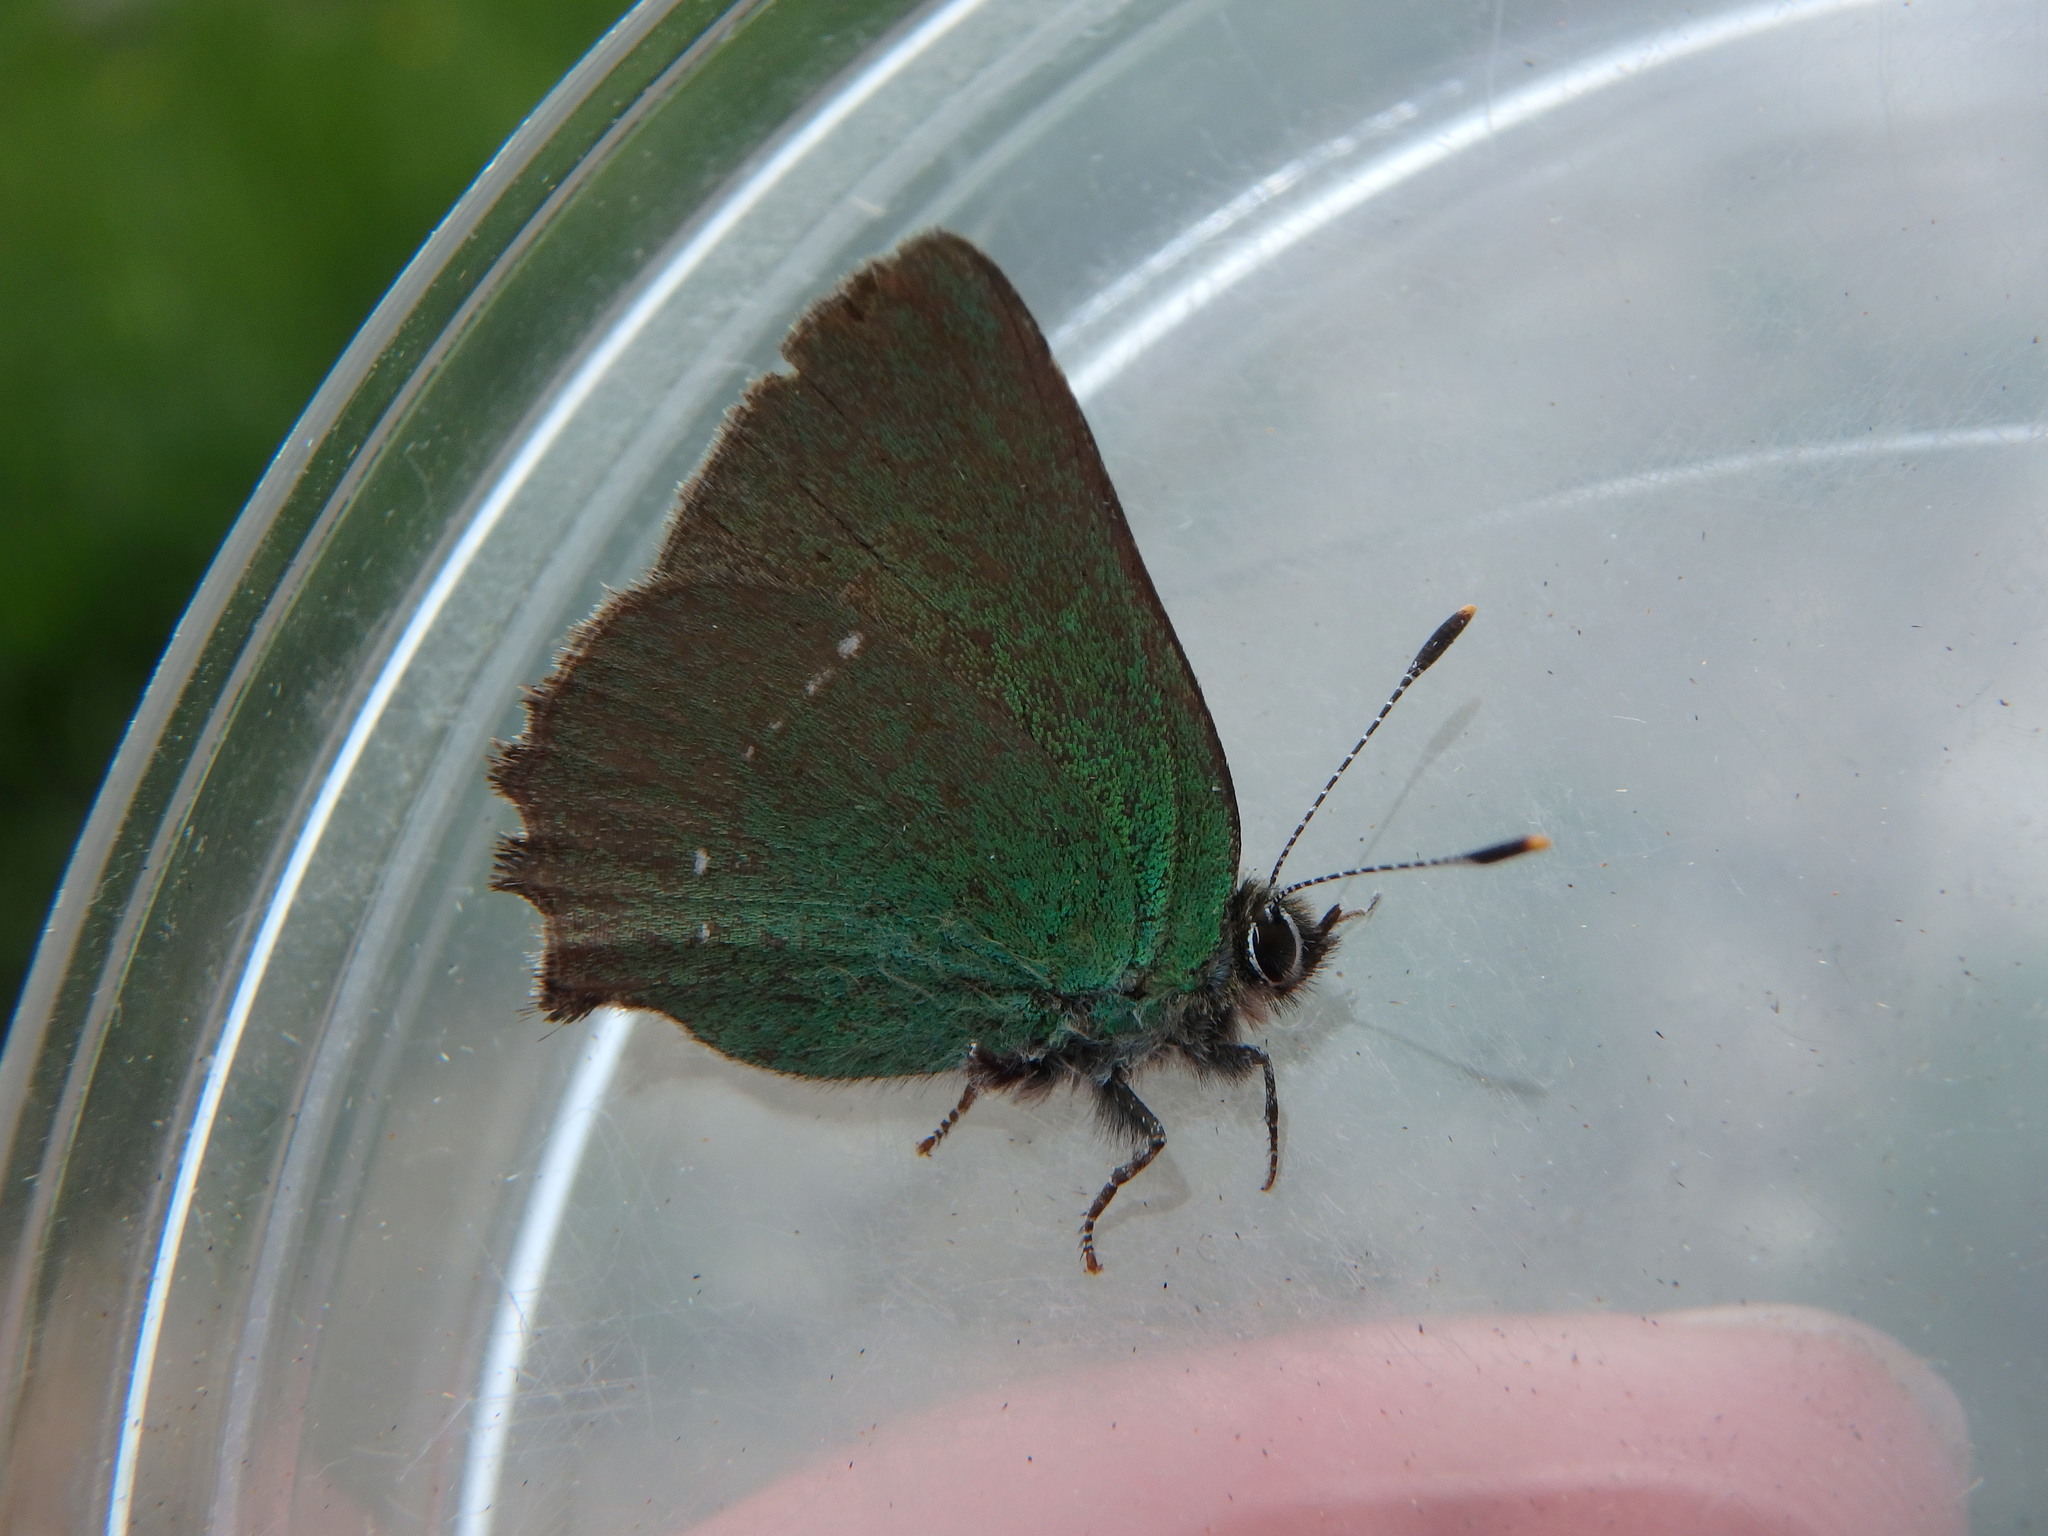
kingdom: Animalia
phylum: Arthropoda
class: Insecta
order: Lepidoptera
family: Lycaenidae
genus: Callophrys
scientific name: Callophrys rubi
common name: Green hairstreak
